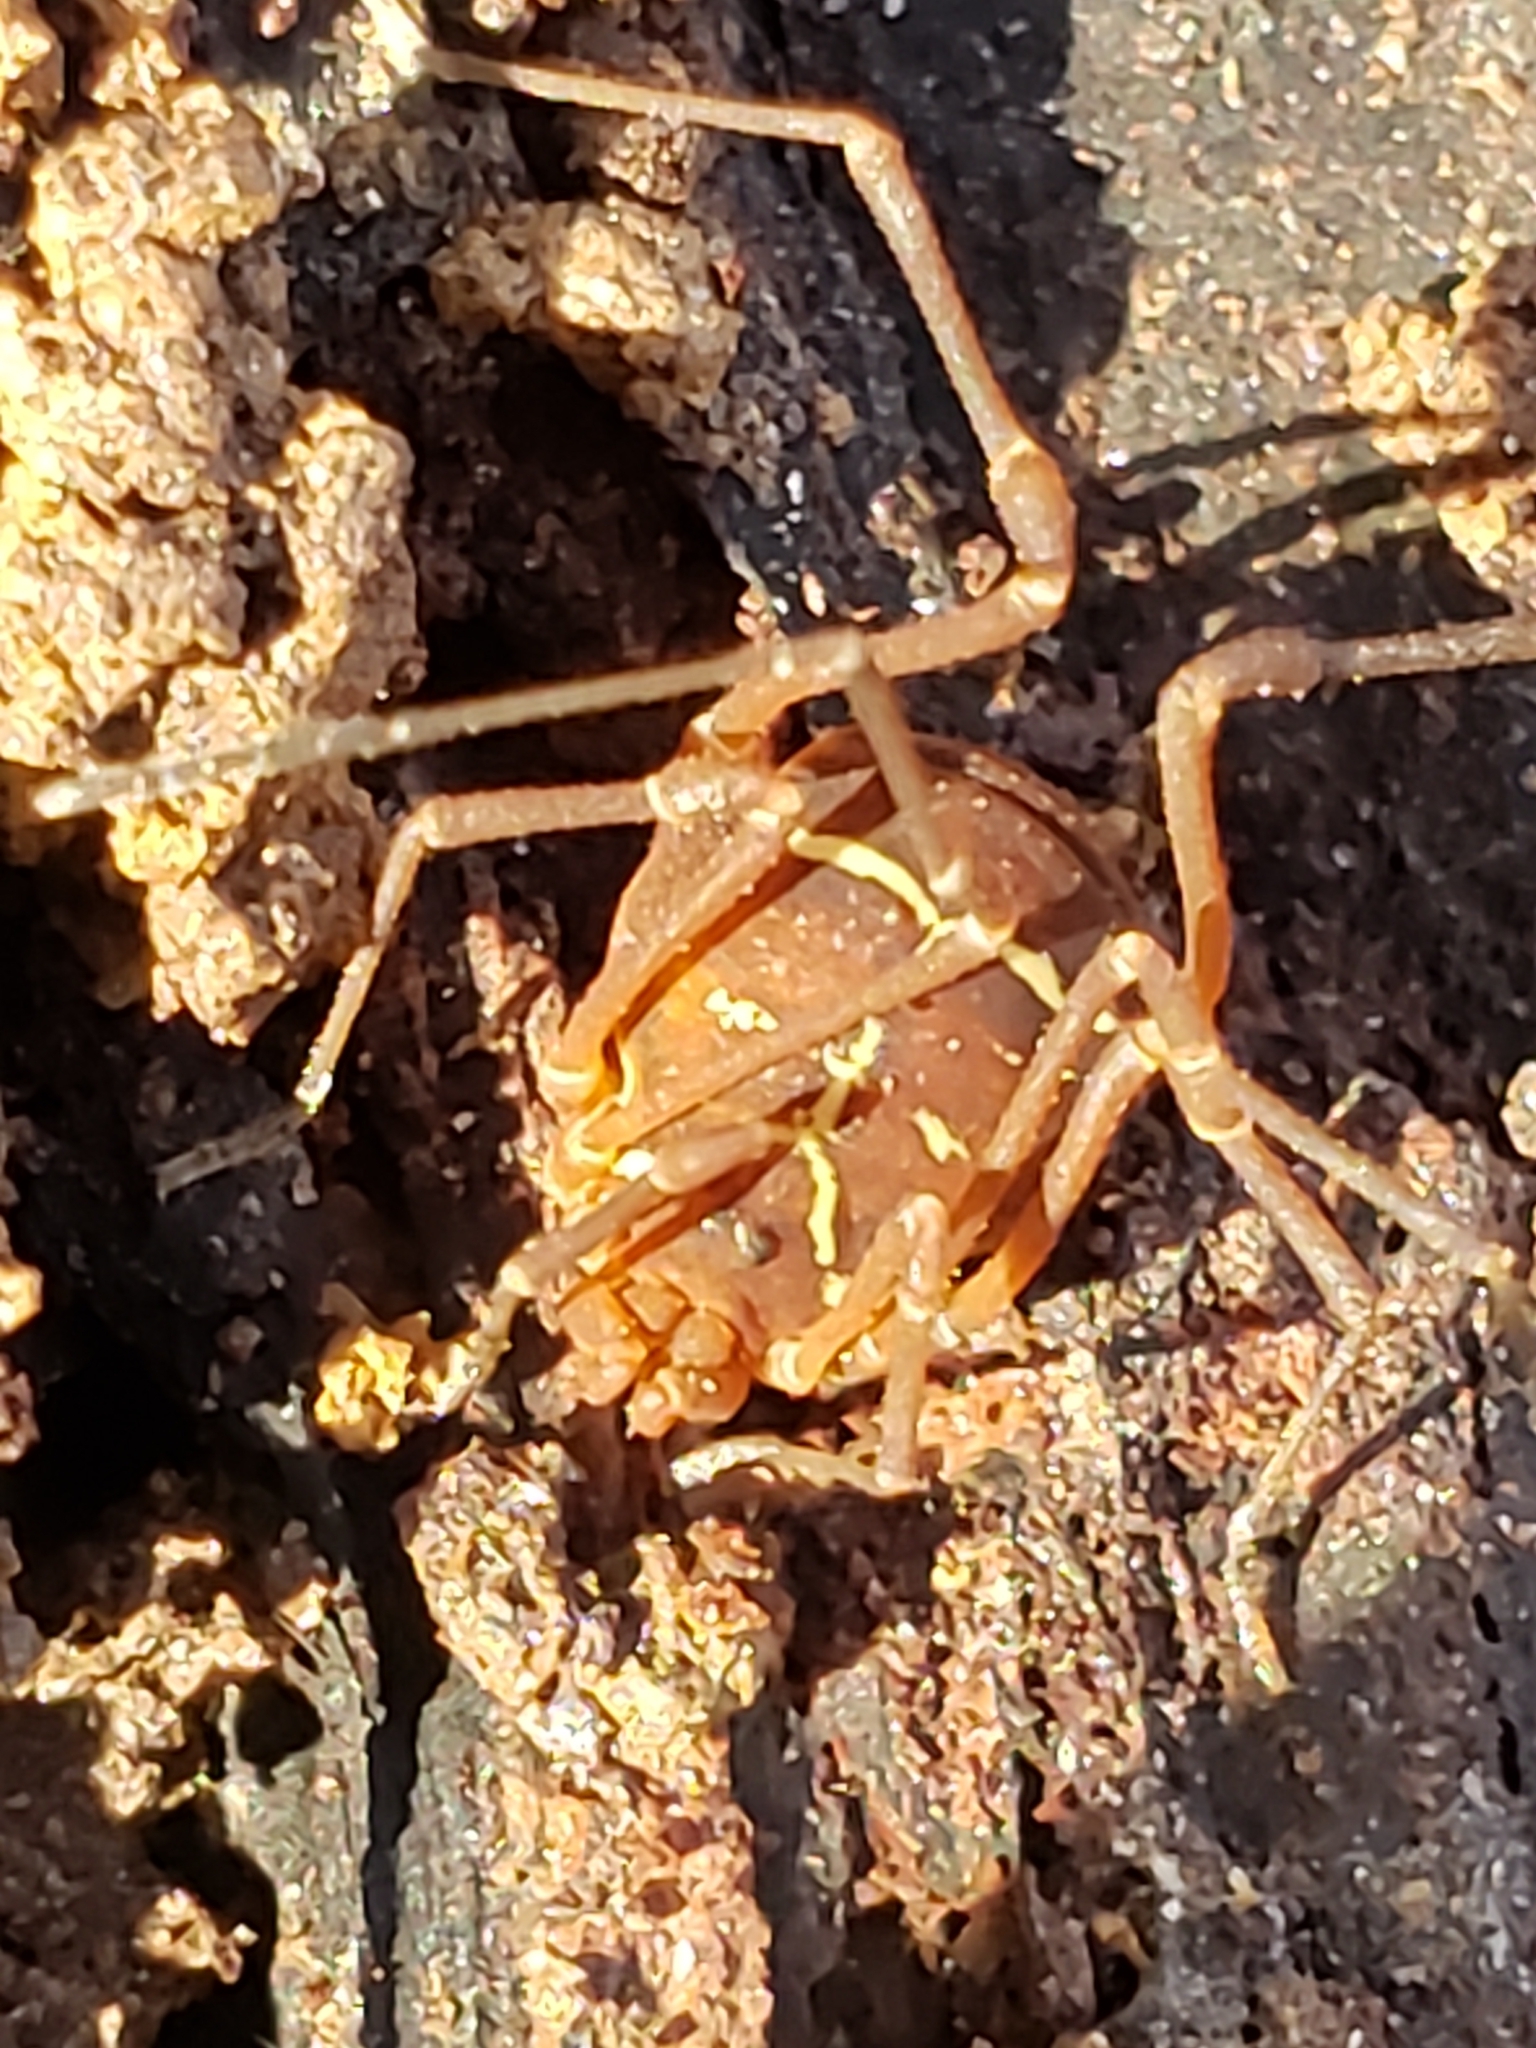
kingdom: Animalia
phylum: Arthropoda
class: Arachnida
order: Opiliones
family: Cosmetidae
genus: Libitioides
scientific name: Libitioides sayi
